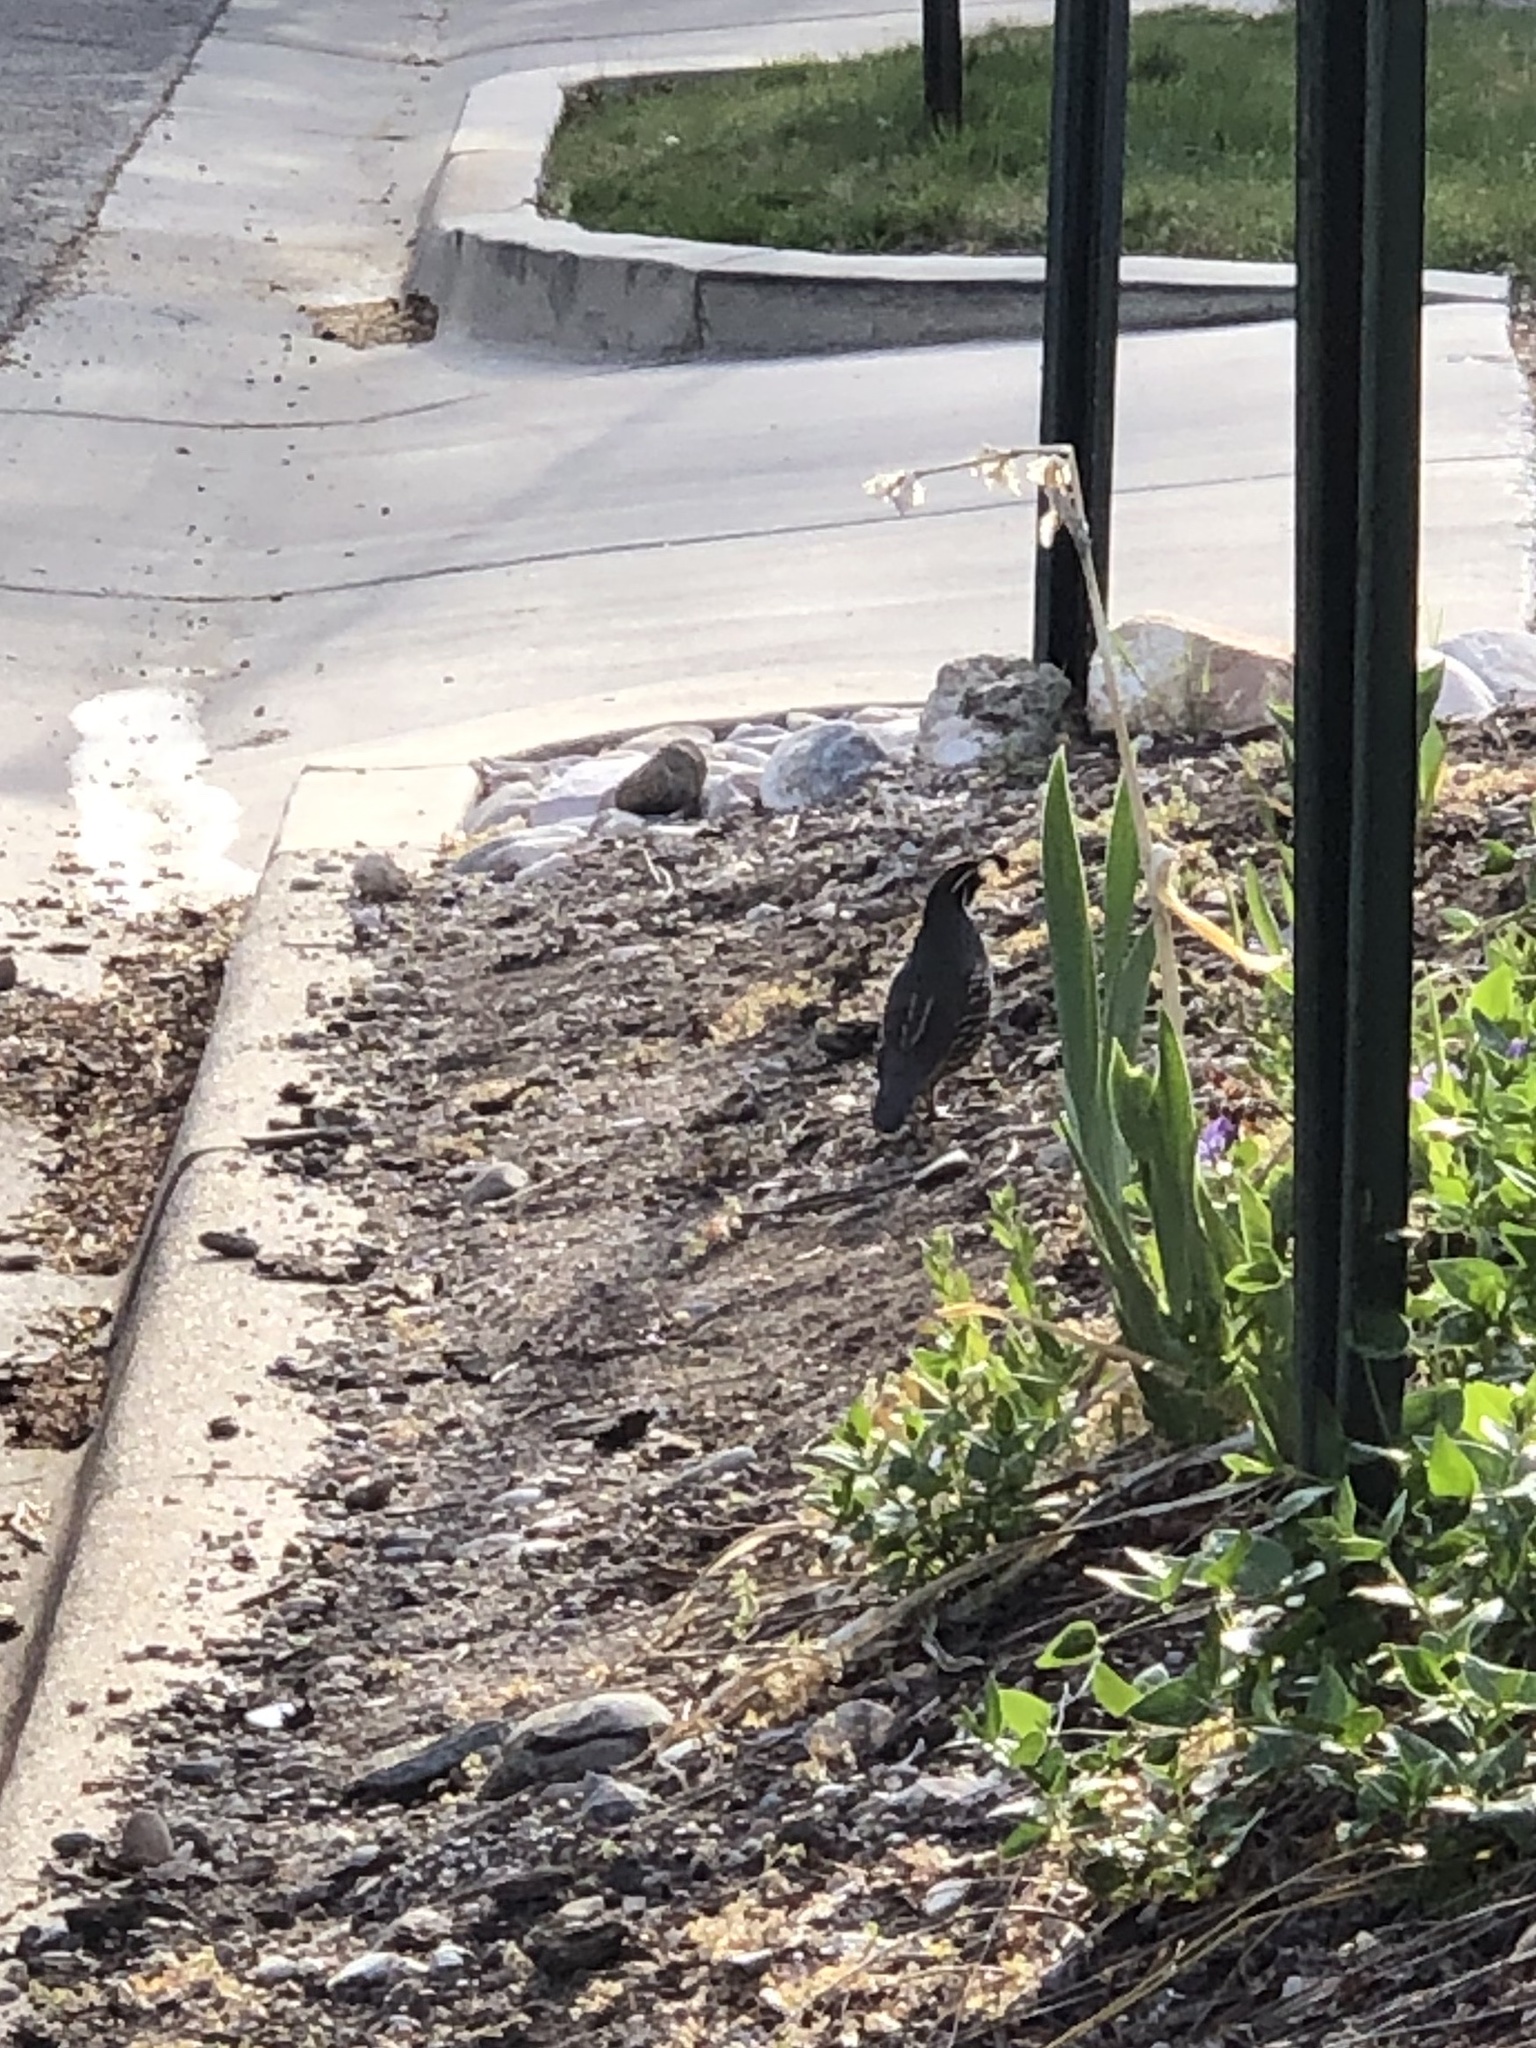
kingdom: Animalia
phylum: Chordata
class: Aves
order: Galliformes
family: Odontophoridae
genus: Callipepla
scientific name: Callipepla californica
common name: California quail
